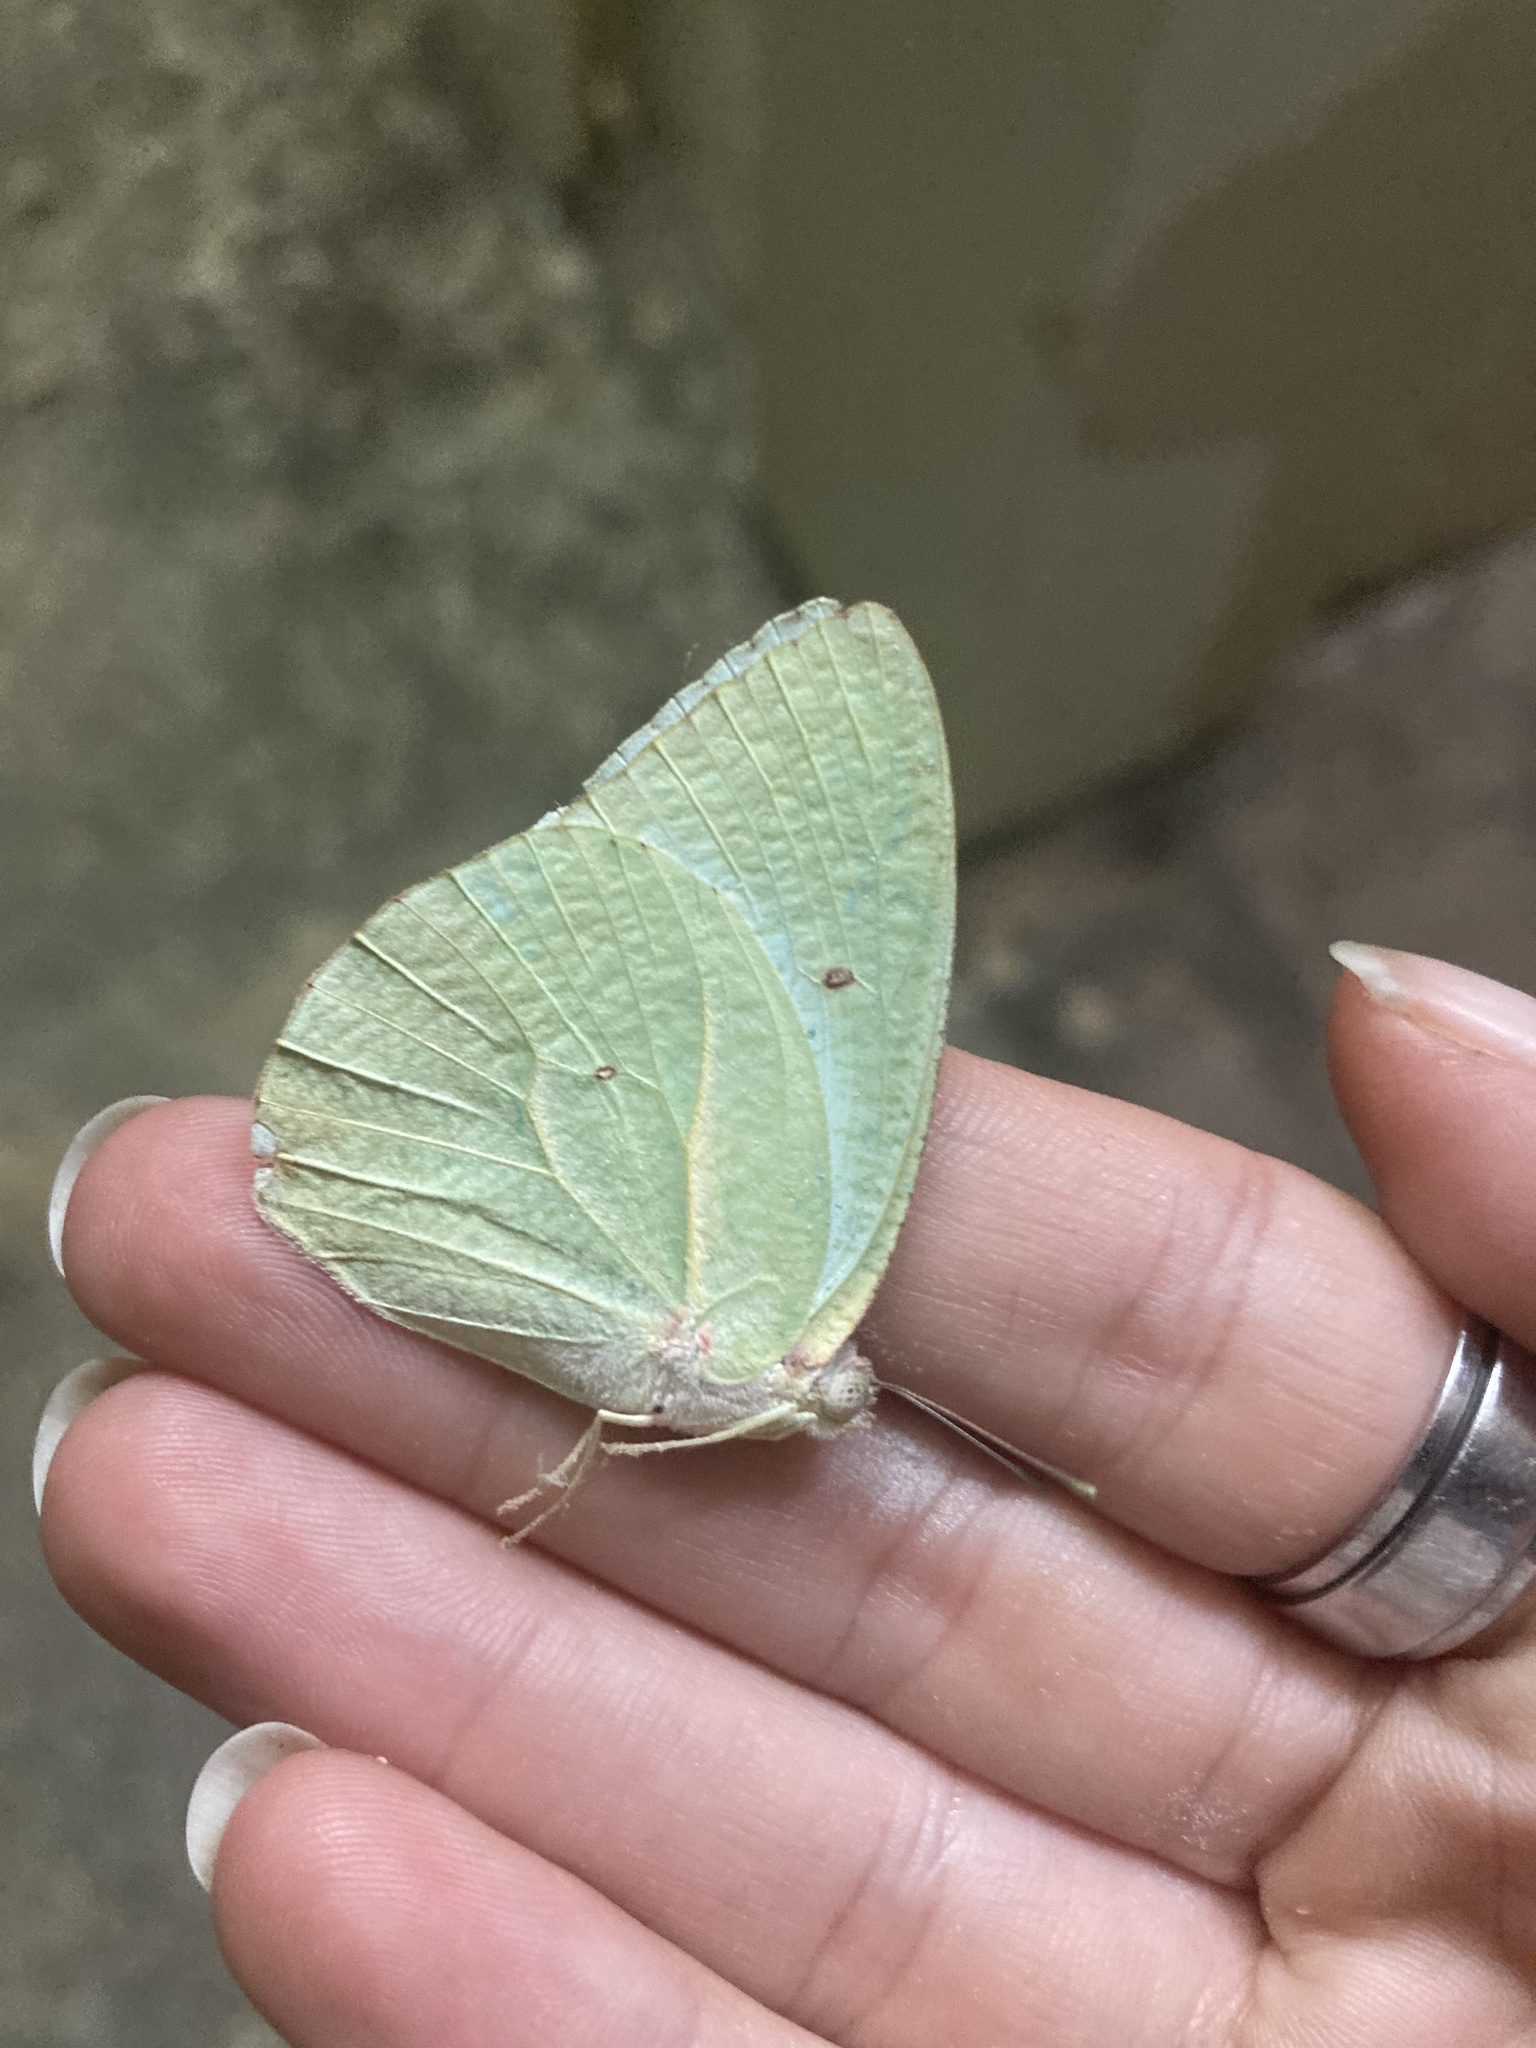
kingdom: Animalia
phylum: Arthropoda
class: Insecta
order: Lepidoptera
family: Pieridae
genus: Catopsilia
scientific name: Catopsilia florella
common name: African migrant
